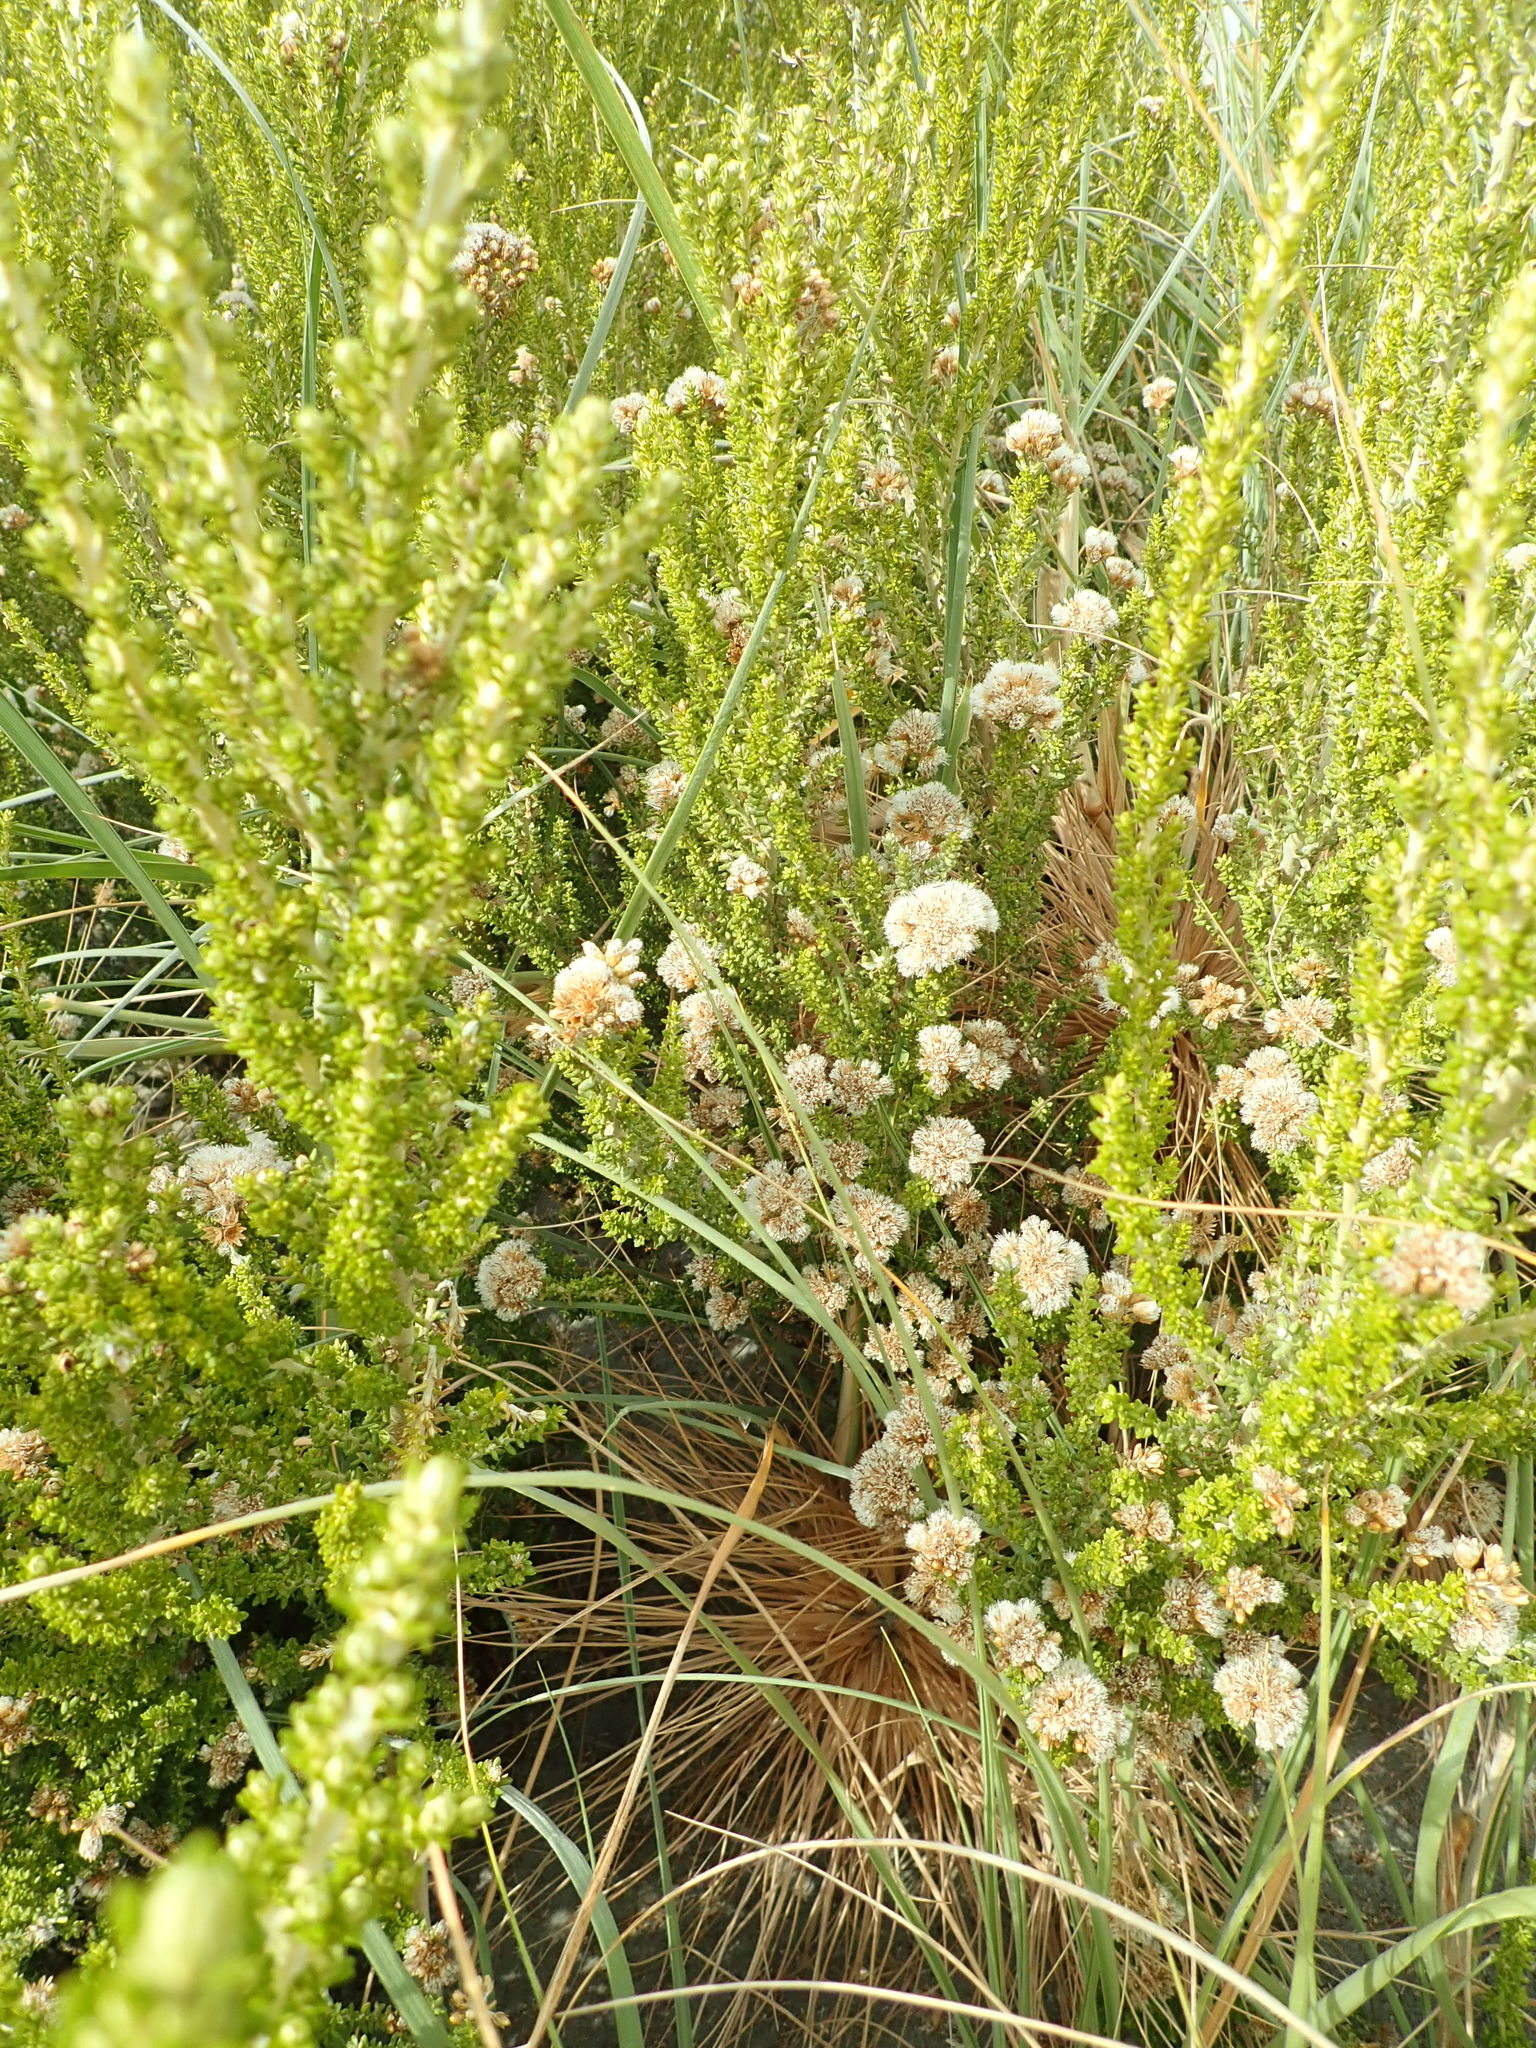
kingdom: Plantae
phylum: Tracheophyta
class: Magnoliopsida
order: Asterales
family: Asteraceae
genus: Ozothamnus
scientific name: Ozothamnus leptophyllus
